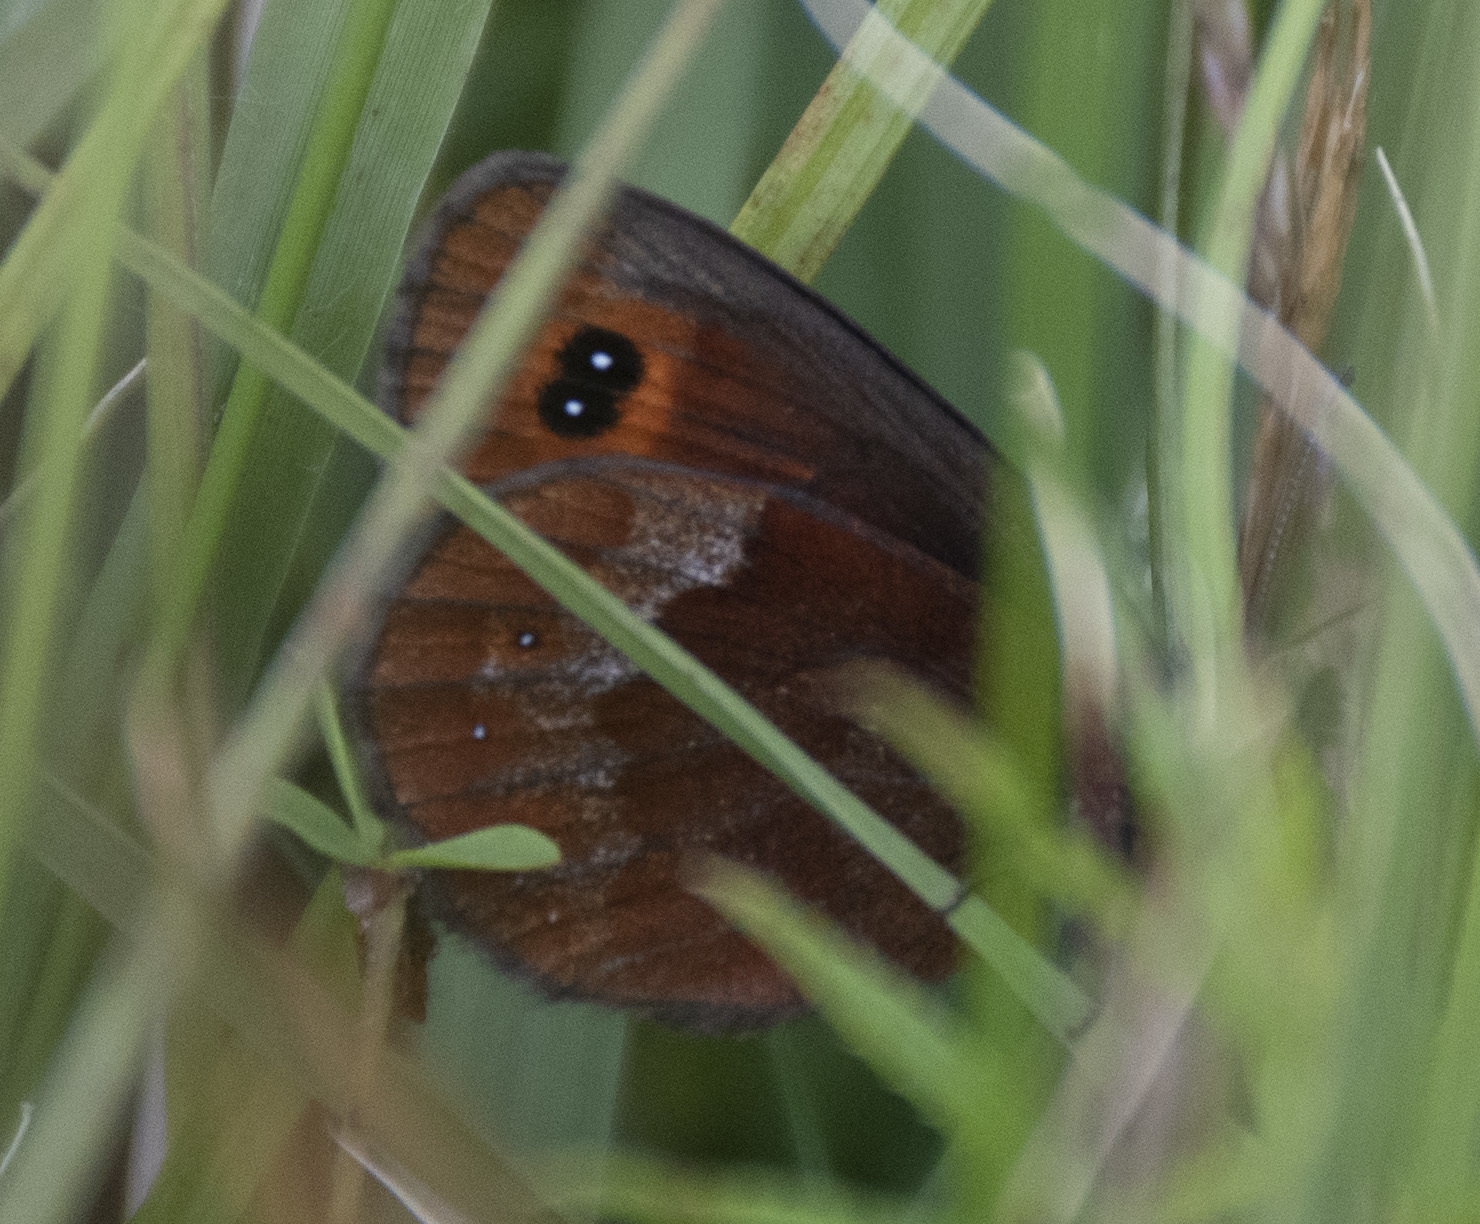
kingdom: Animalia
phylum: Arthropoda
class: Insecta
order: Lepidoptera
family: Nymphalidae
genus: Erebia
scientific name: Erebia aethiops
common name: Scotch argus
